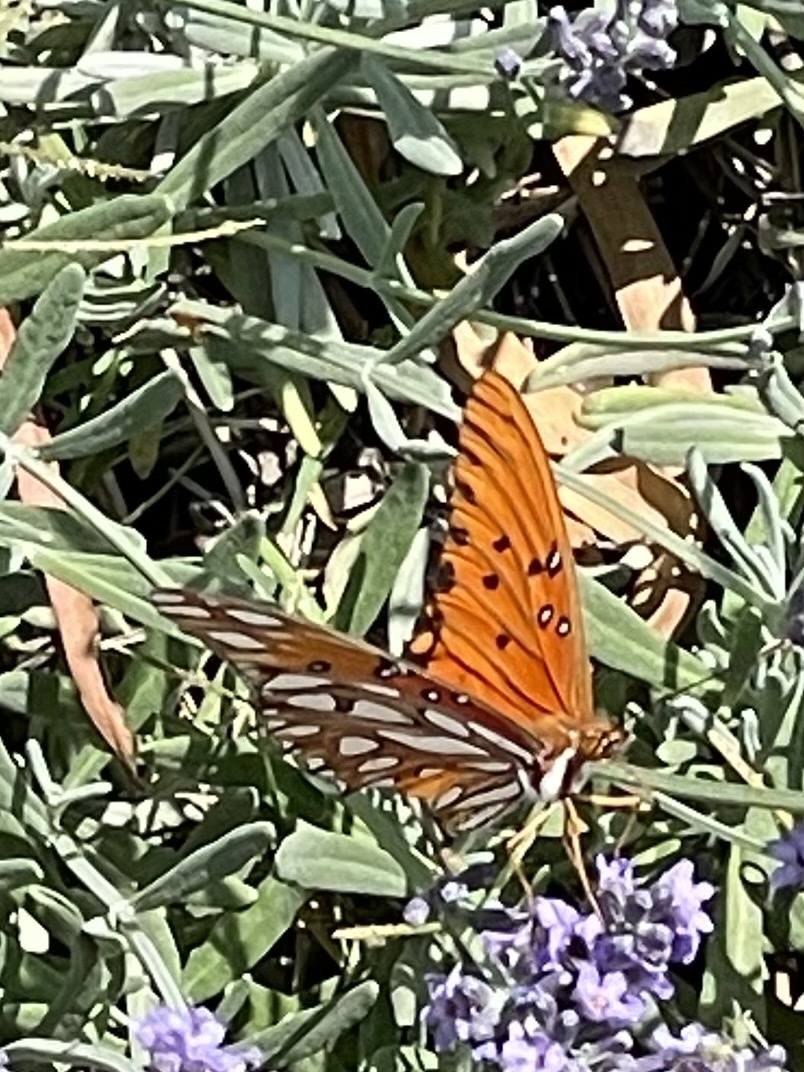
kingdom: Animalia
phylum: Arthropoda
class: Insecta
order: Lepidoptera
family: Nymphalidae
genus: Dione
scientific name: Dione vanillae
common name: Gulf fritillary
